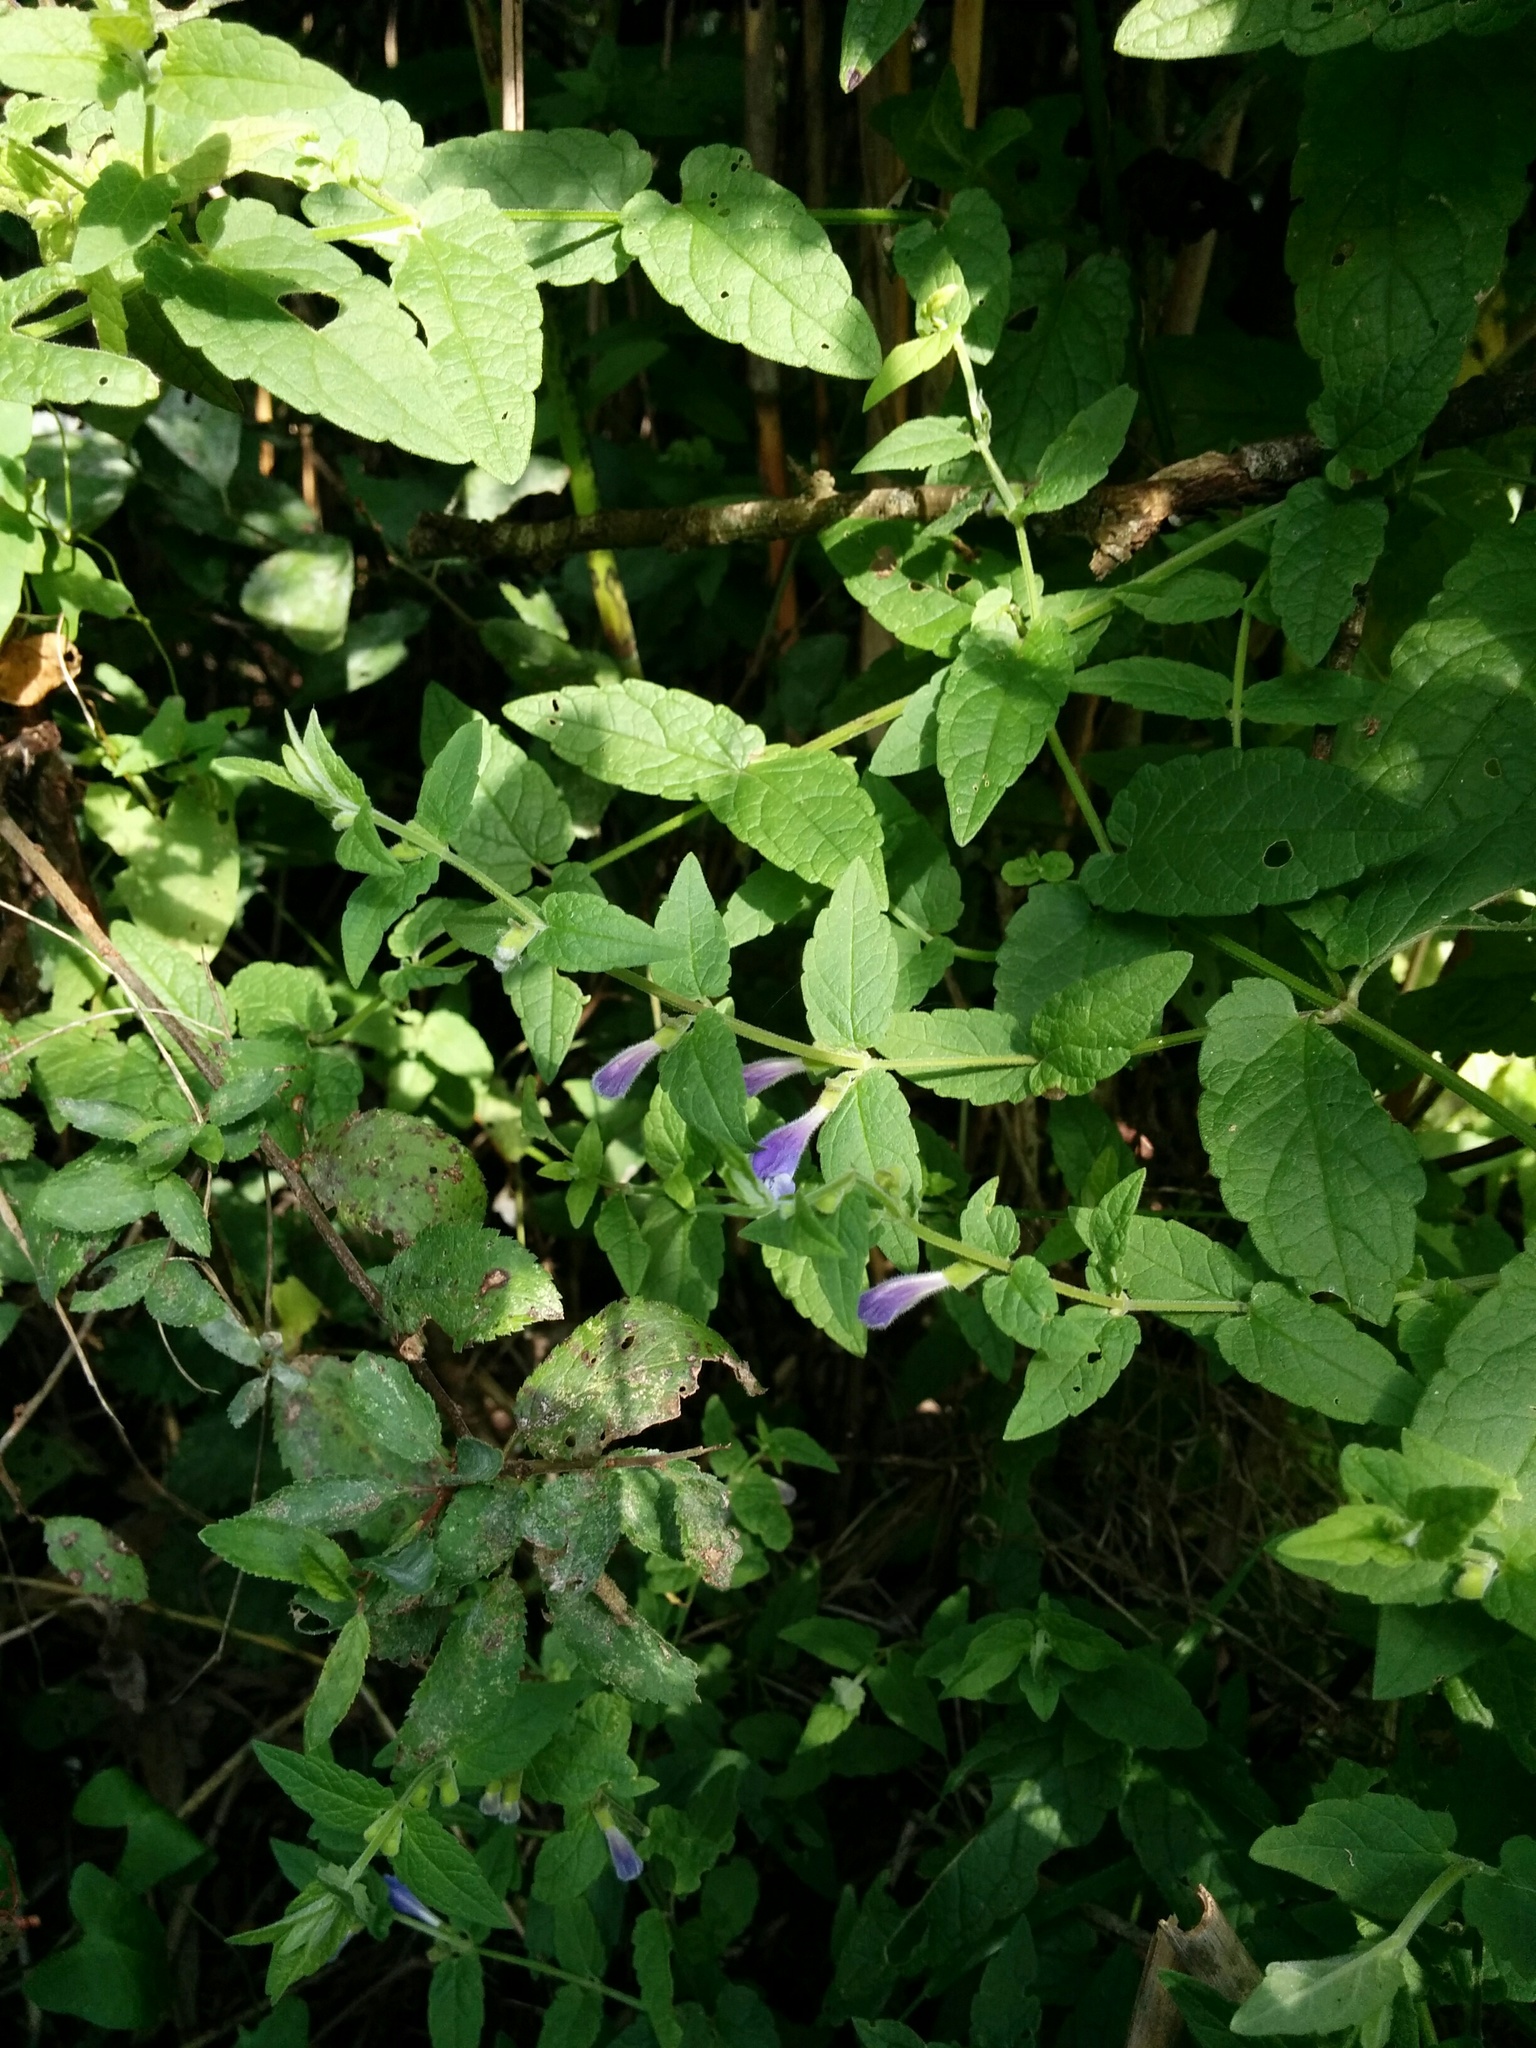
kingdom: Plantae
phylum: Tracheophyta
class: Magnoliopsida
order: Lamiales
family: Lamiaceae
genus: Scutellaria
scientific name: Scutellaria galericulata
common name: Skullcap
